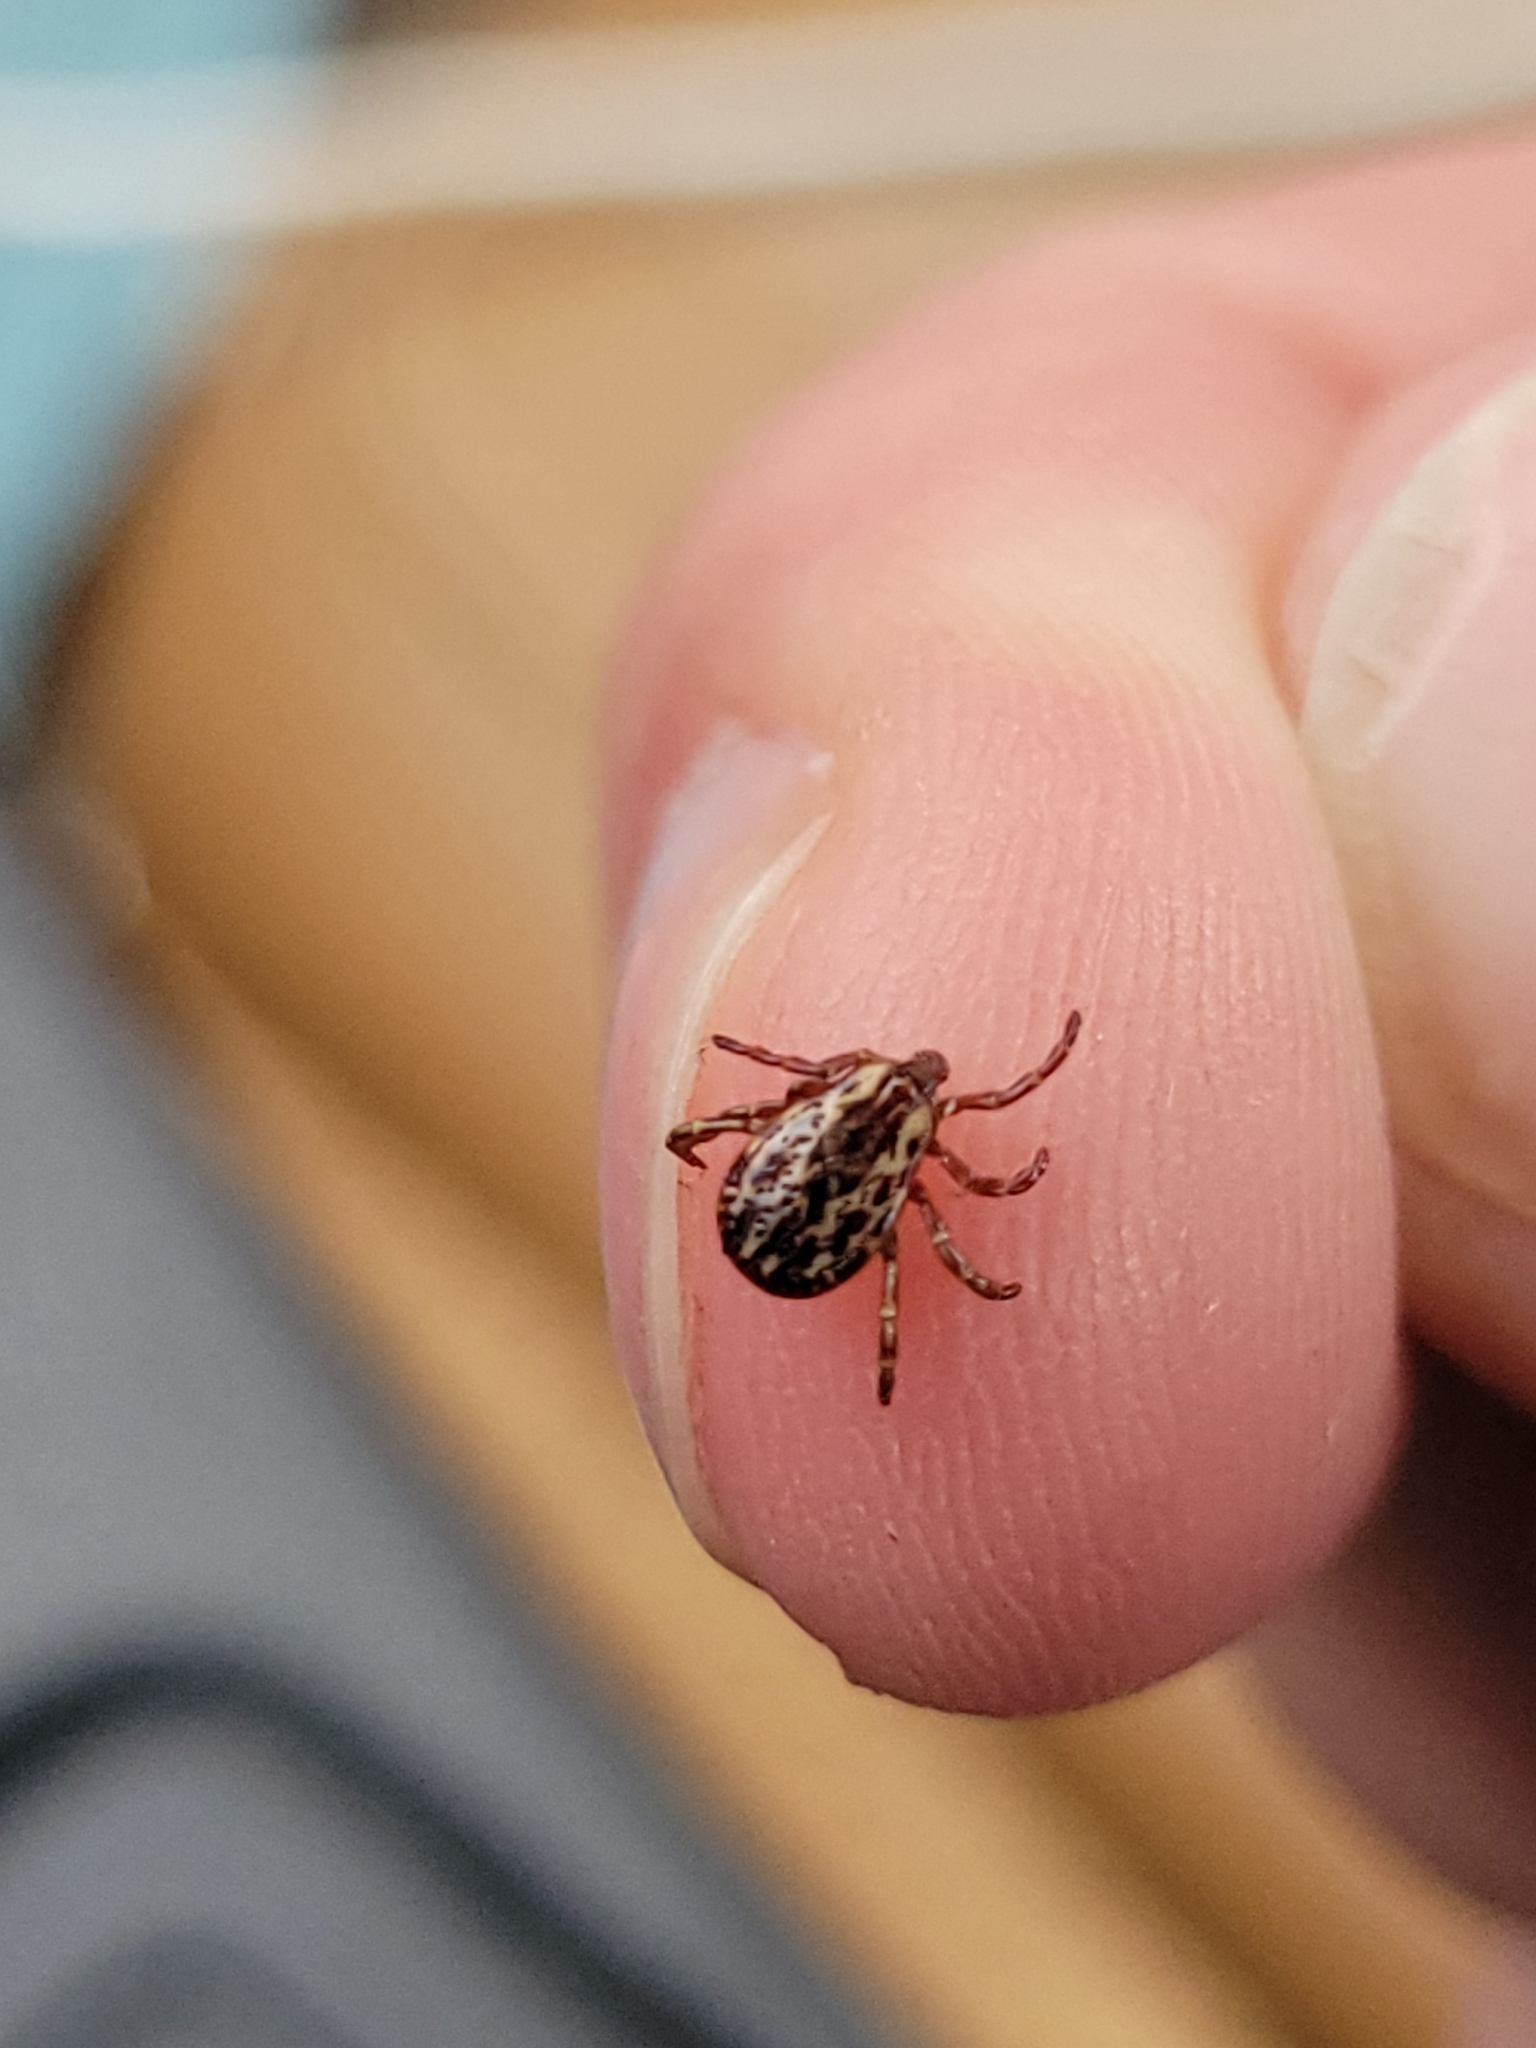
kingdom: Animalia
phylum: Arthropoda
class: Arachnida
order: Ixodida
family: Ixodidae
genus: Dermacentor
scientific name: Dermacentor variabilis
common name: American dog tick
